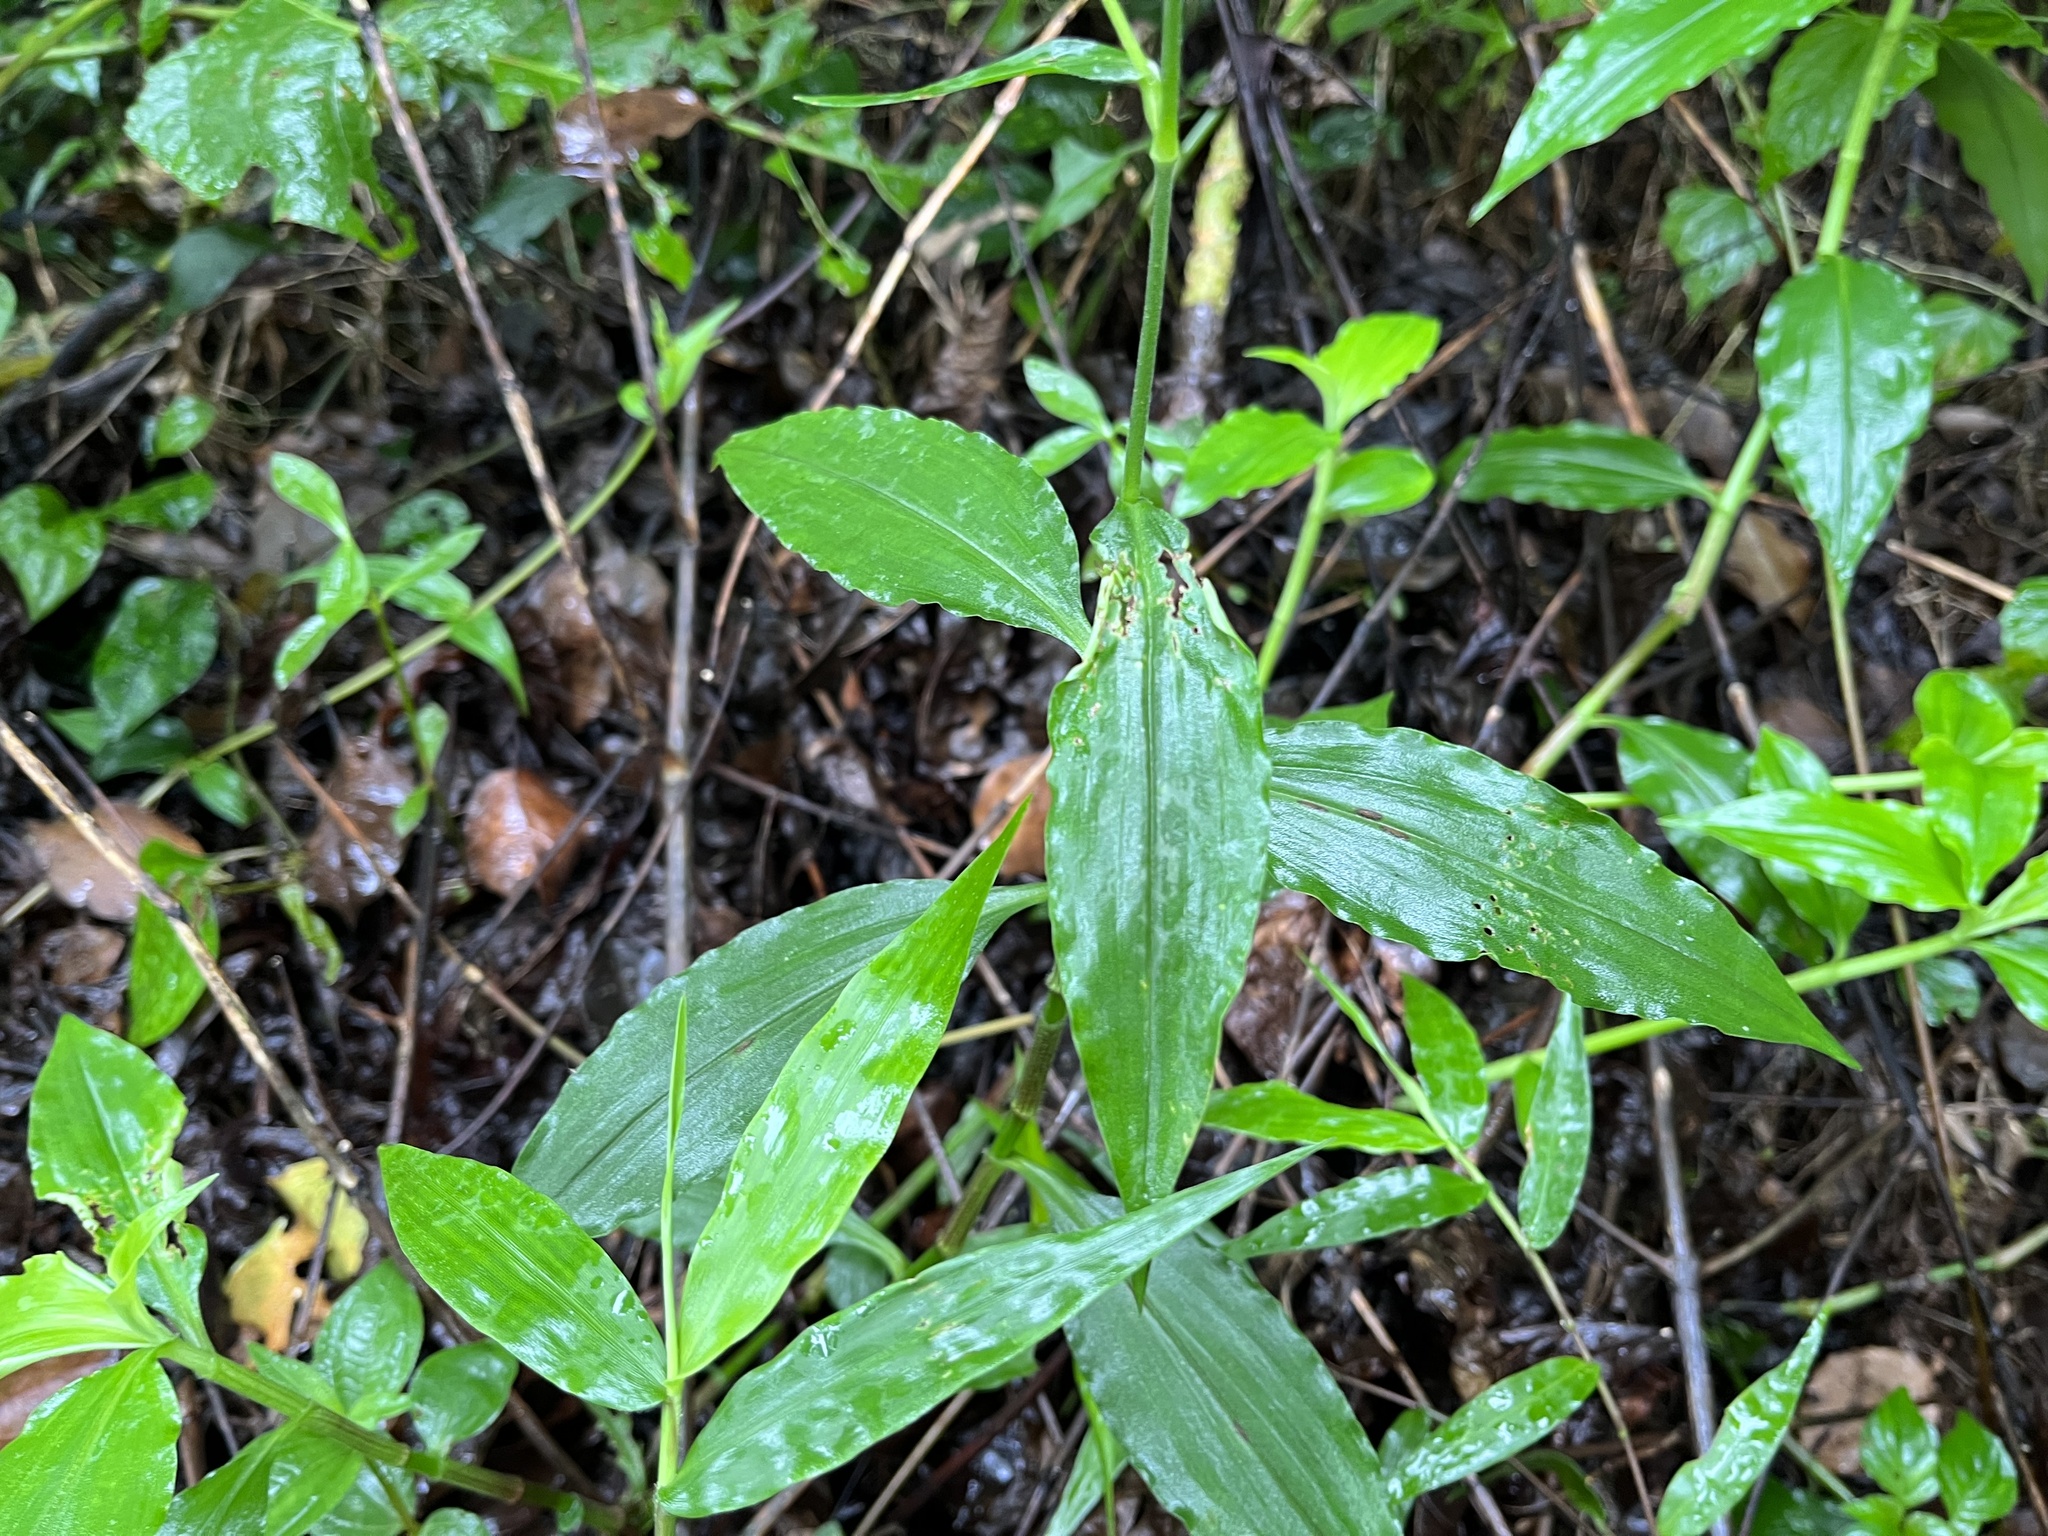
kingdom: Plantae
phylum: Tracheophyta
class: Liliopsida
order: Commelinales
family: Commelinaceae
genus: Rhopalephora
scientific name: Rhopalephora scaberrima
